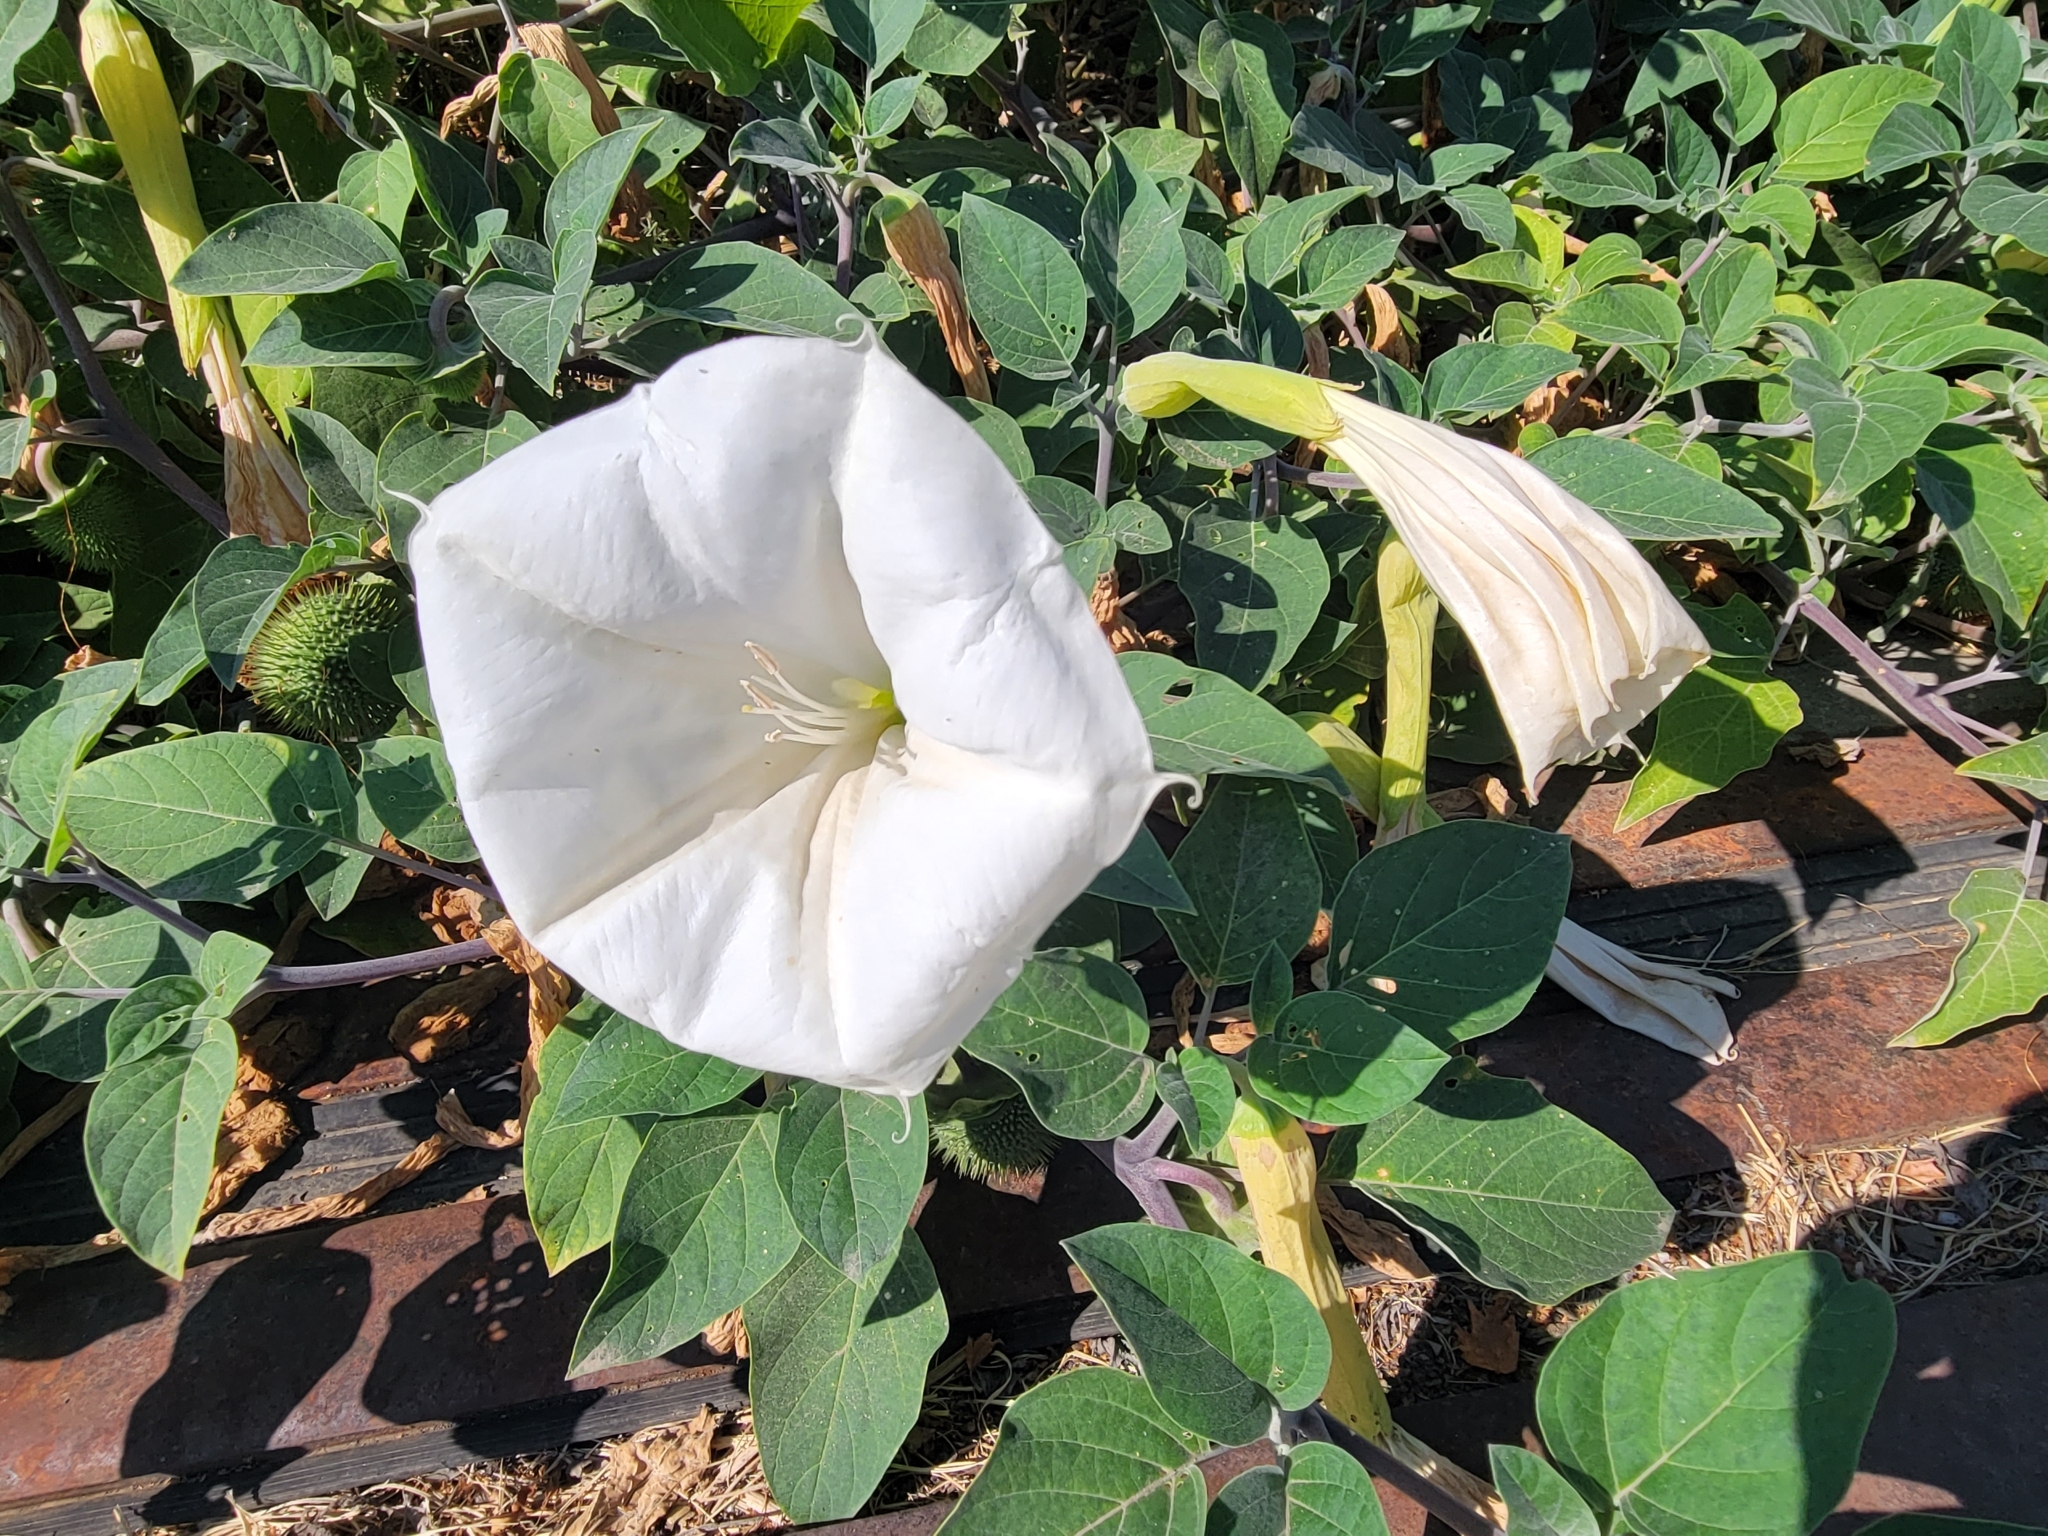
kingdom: Plantae
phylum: Tracheophyta
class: Magnoliopsida
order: Solanales
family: Solanaceae
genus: Datura
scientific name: Datura wrightii
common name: Sacred thorn-apple
